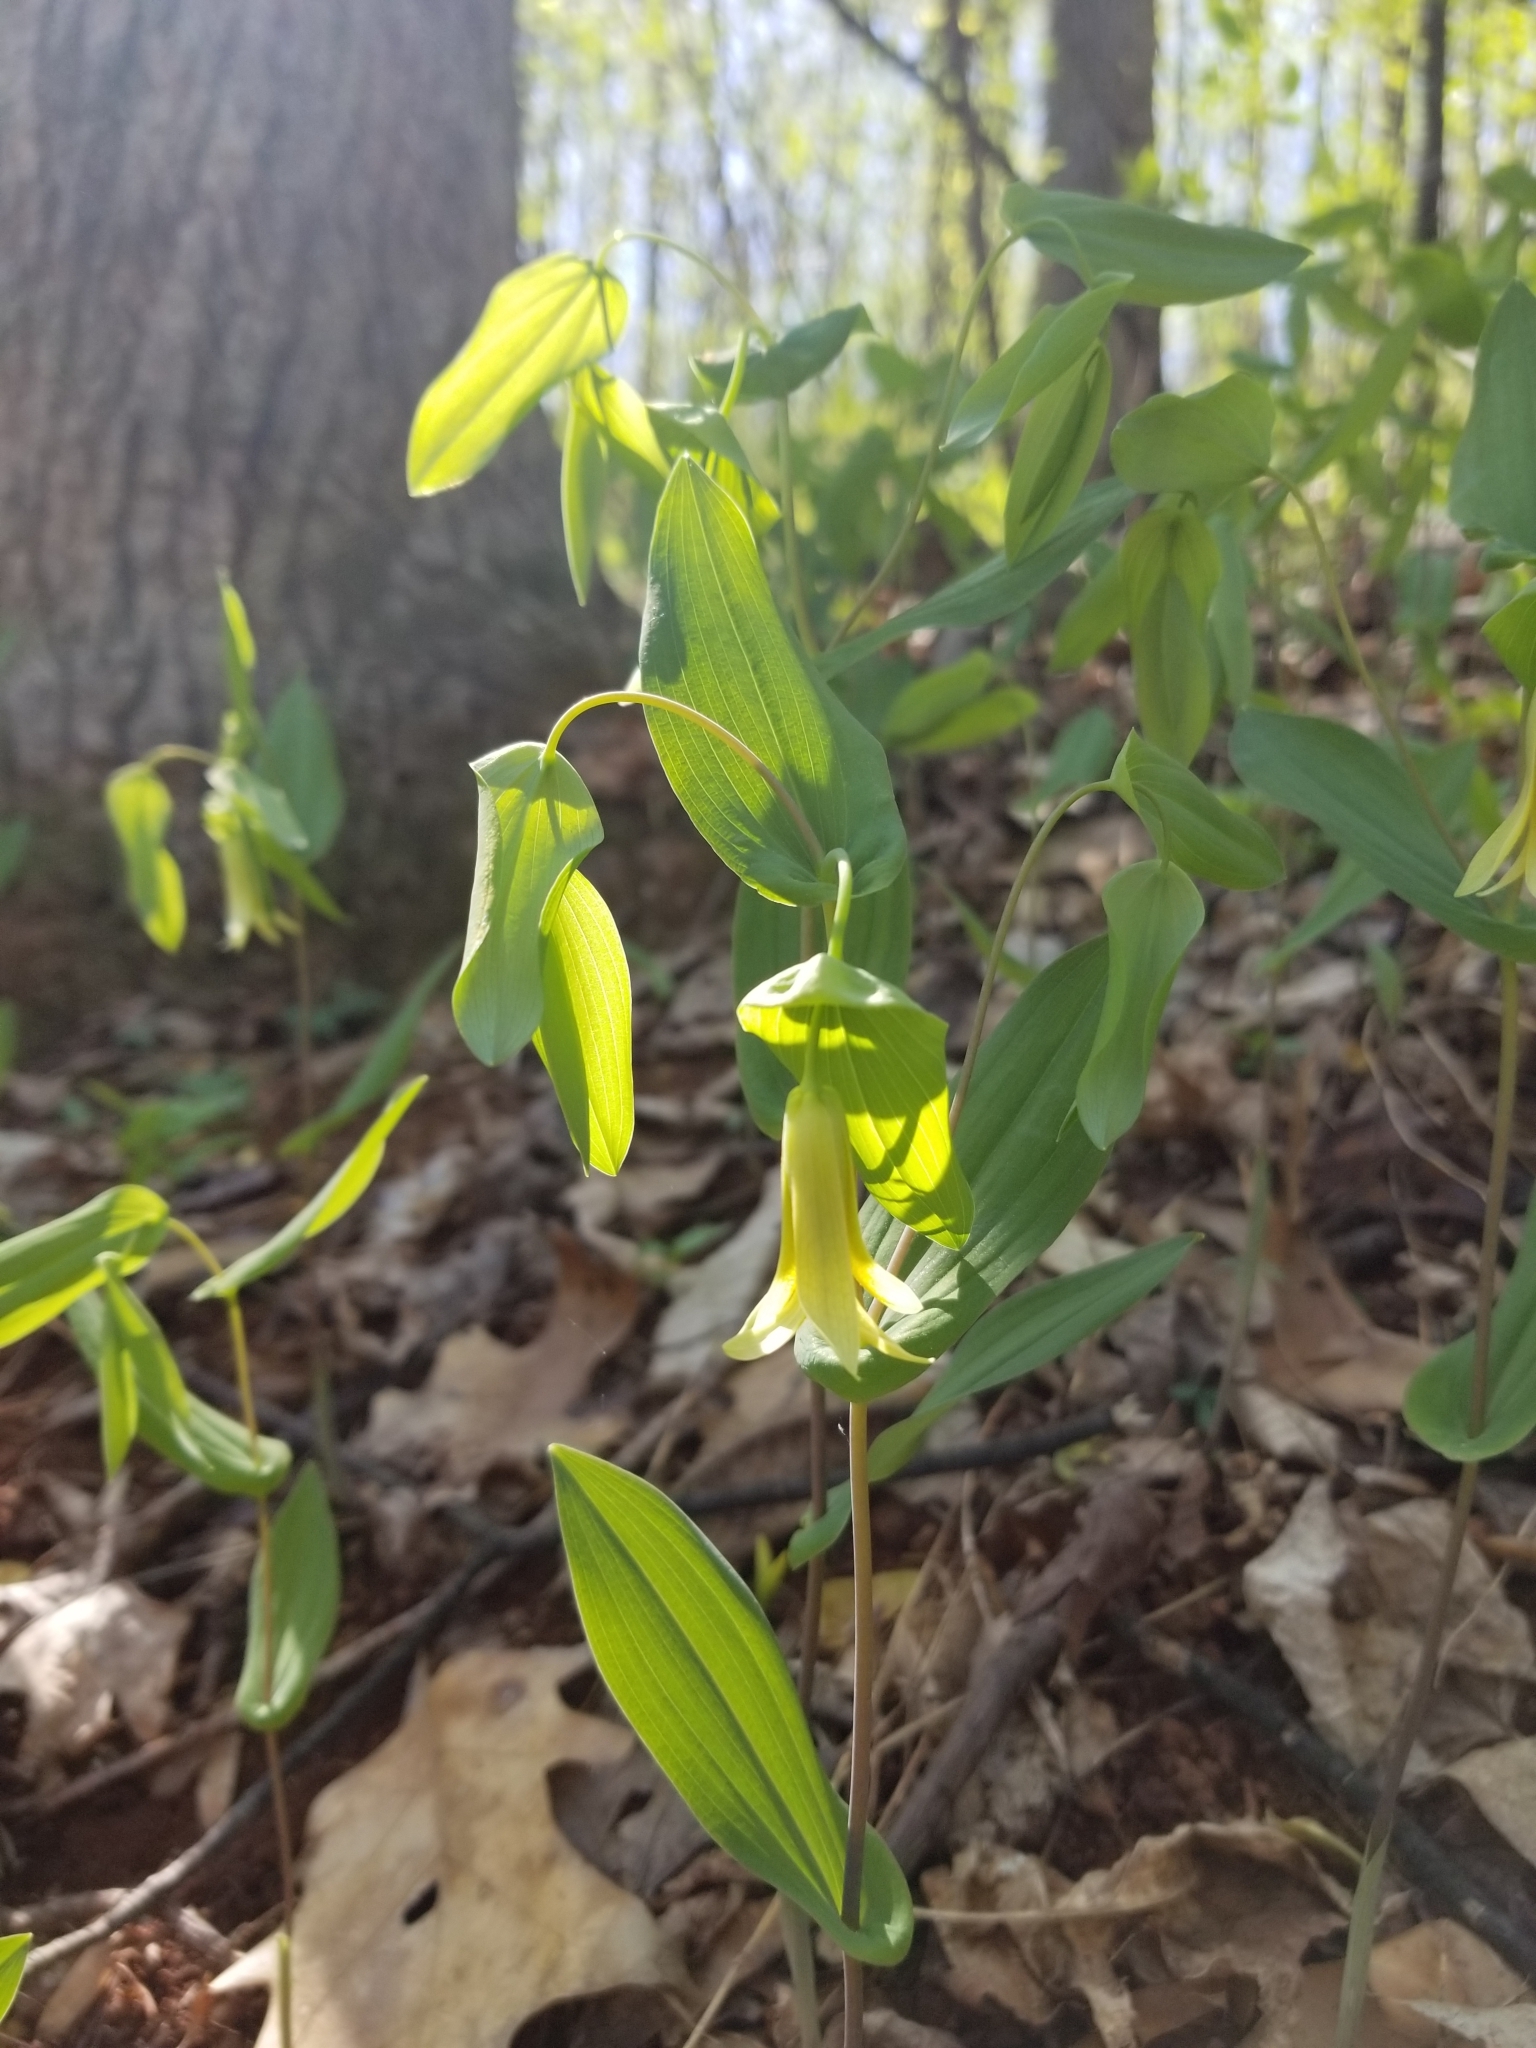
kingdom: Plantae
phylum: Tracheophyta
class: Liliopsida
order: Liliales
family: Colchicaceae
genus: Uvularia
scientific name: Uvularia perfoliata
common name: Perfoliate bellwort
